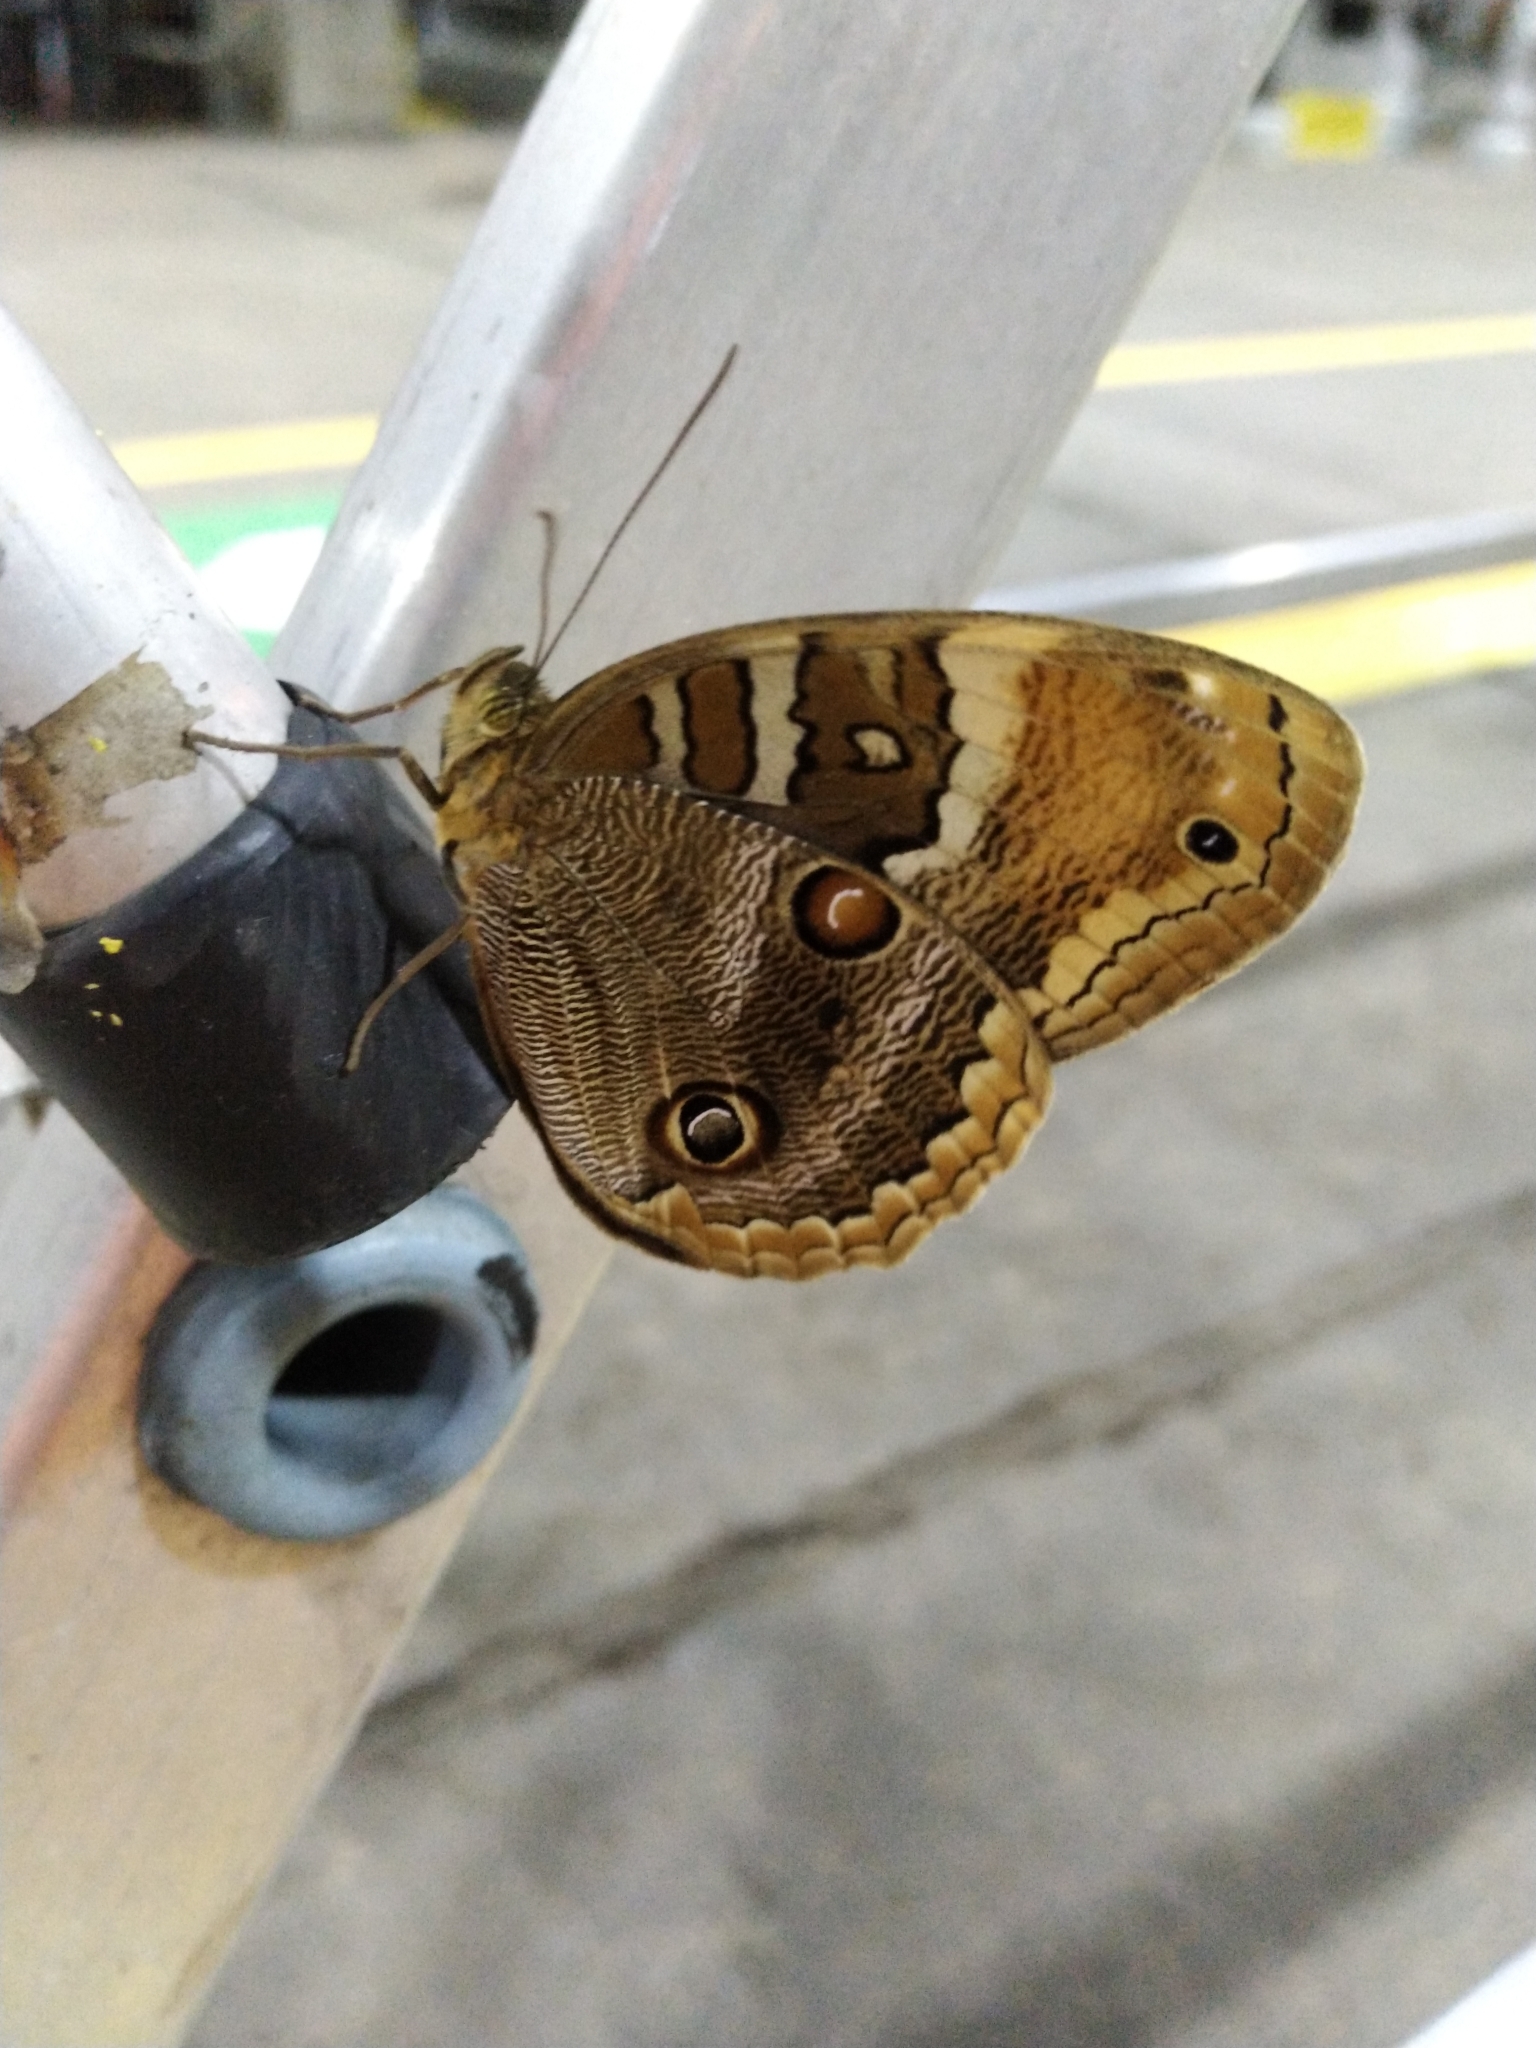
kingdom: Animalia
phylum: Arthropoda
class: Insecta
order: Lepidoptera
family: Nymphalidae
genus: Opoptera
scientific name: Opoptera sulcius
